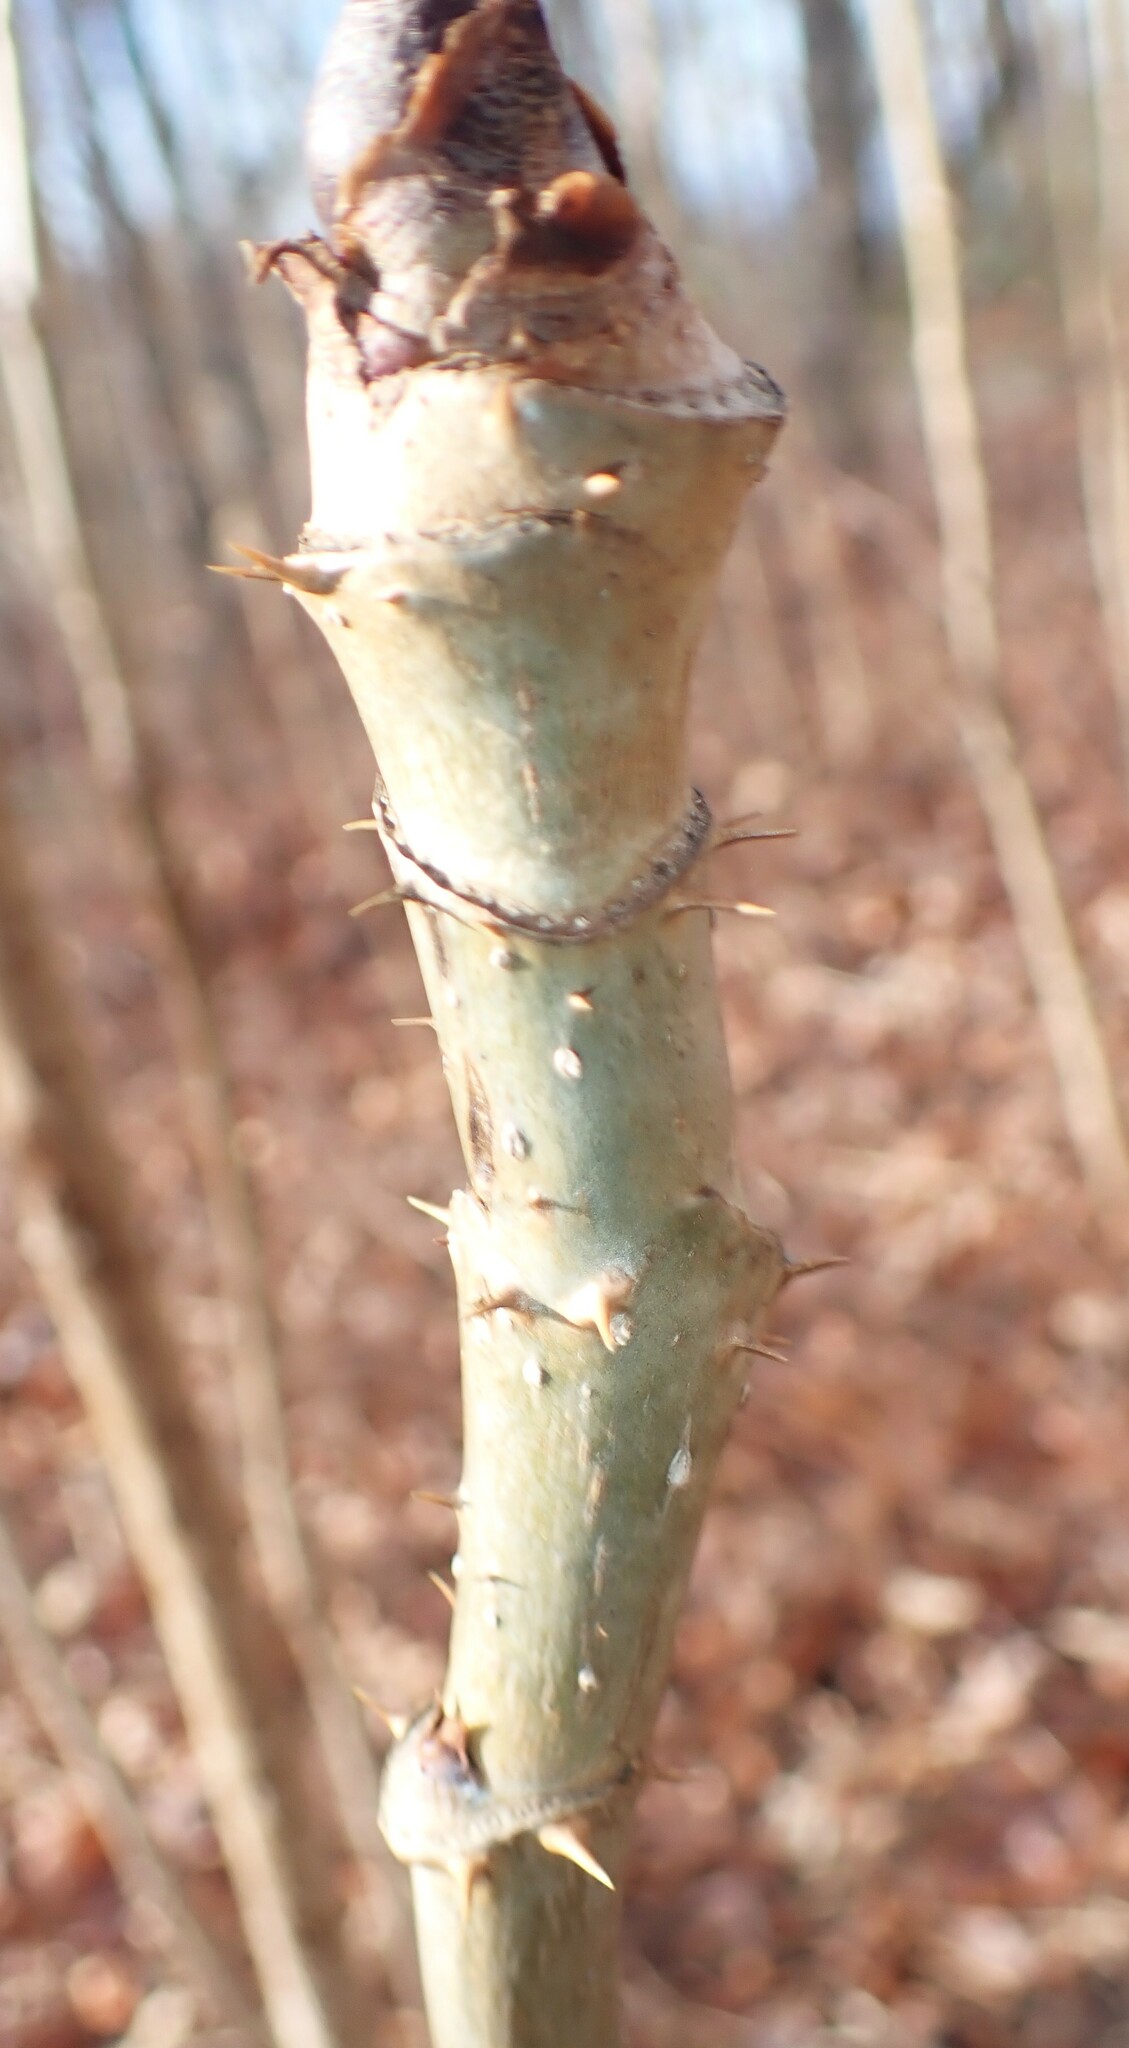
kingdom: Plantae
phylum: Tracheophyta
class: Magnoliopsida
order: Apiales
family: Araliaceae
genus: Aralia
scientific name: Aralia spinosa
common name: Hercules'-club
